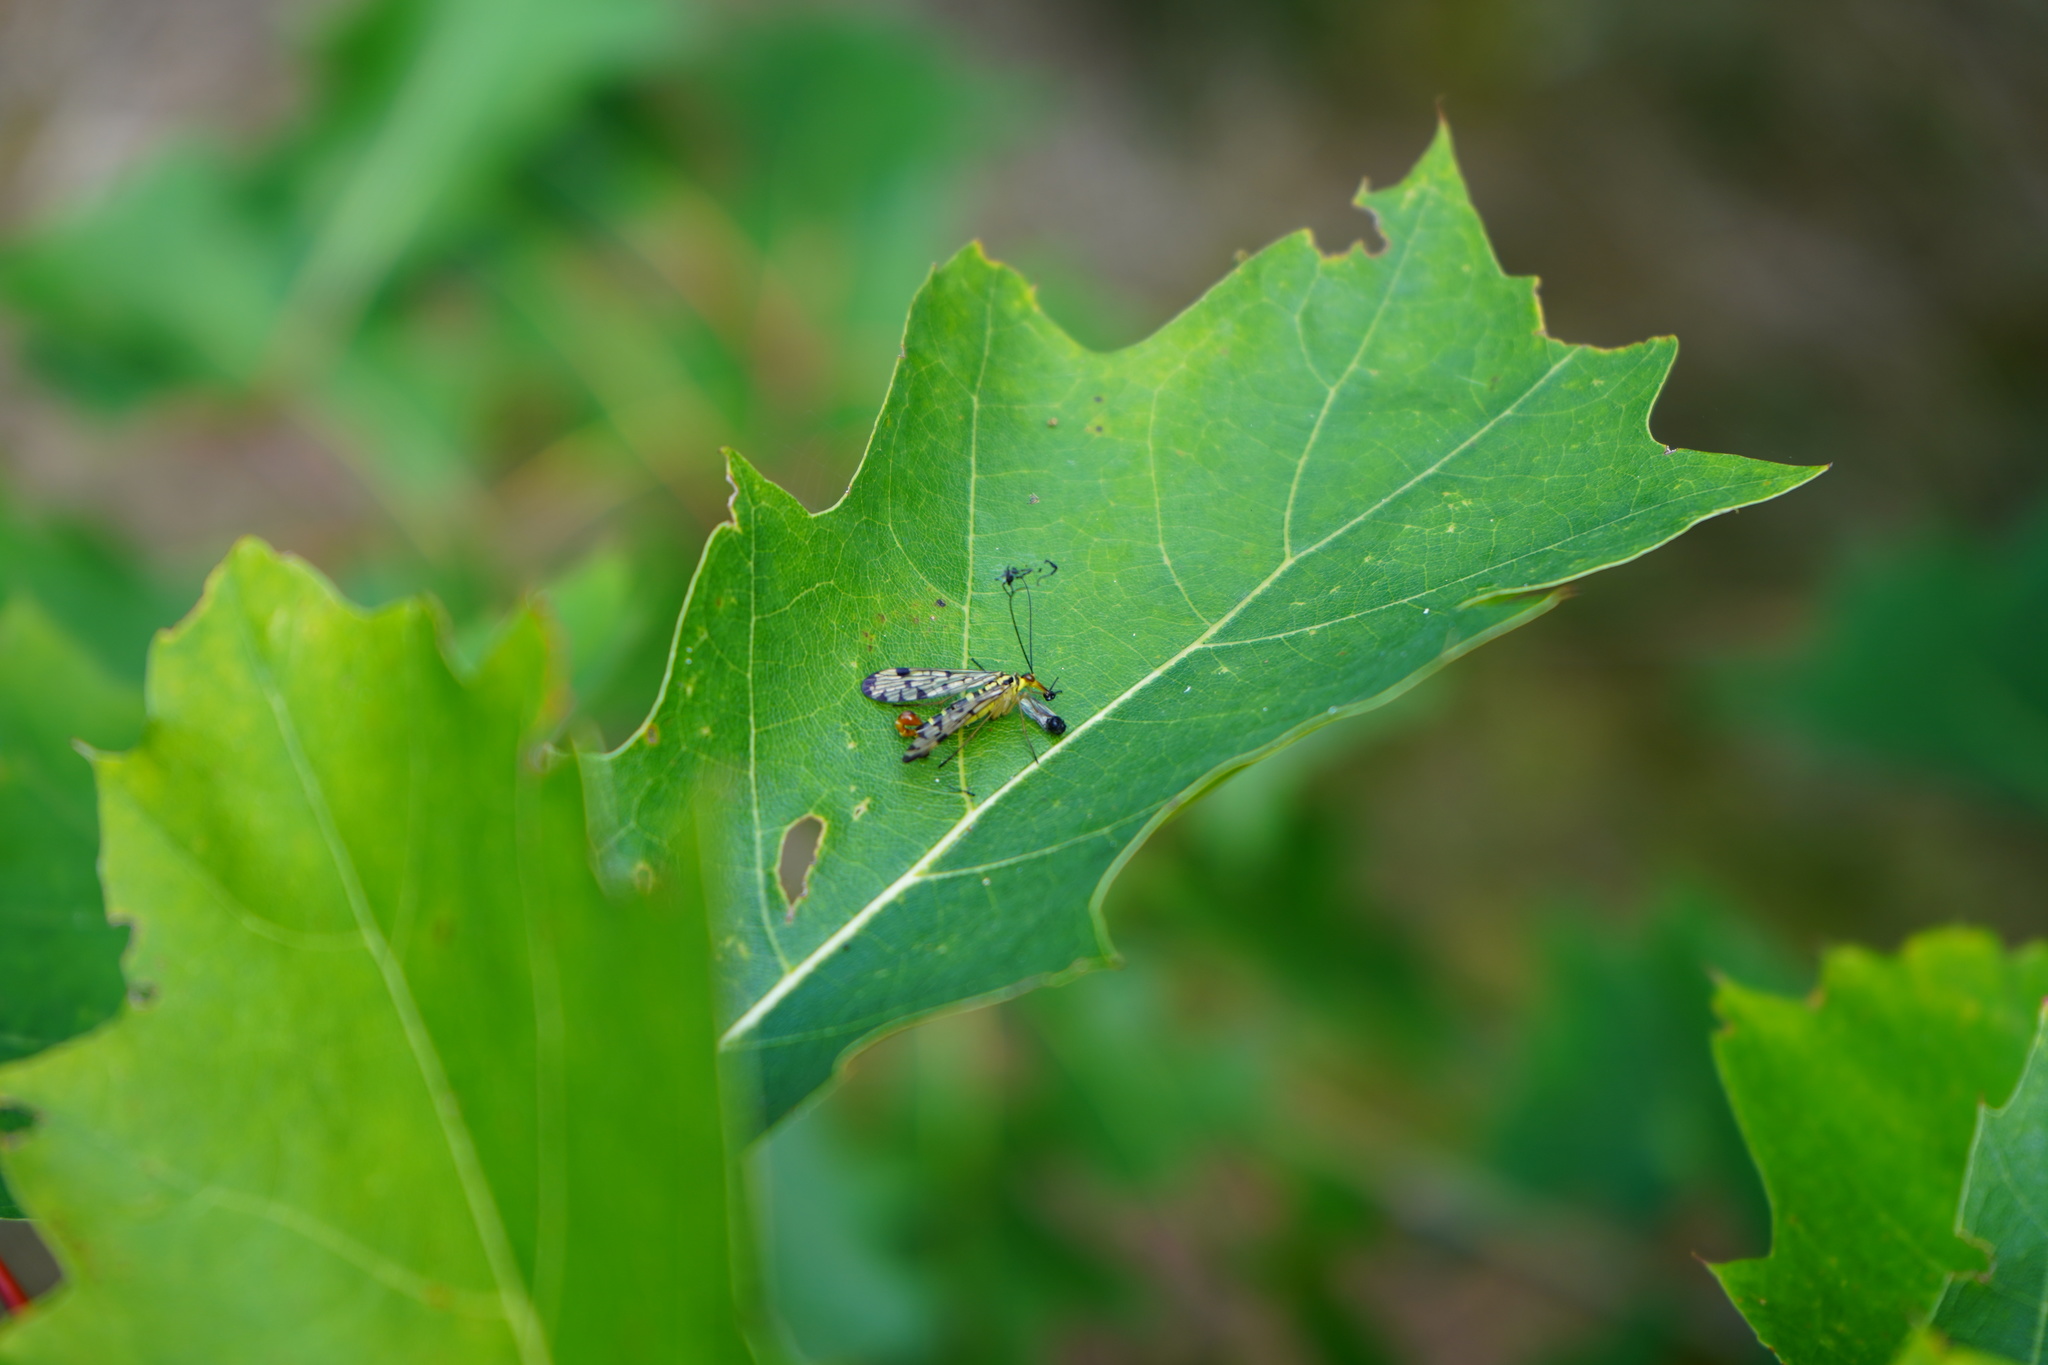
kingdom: Animalia
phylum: Arthropoda
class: Insecta
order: Mecoptera
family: Panorpidae
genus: Panorpa
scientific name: Panorpa germanica
